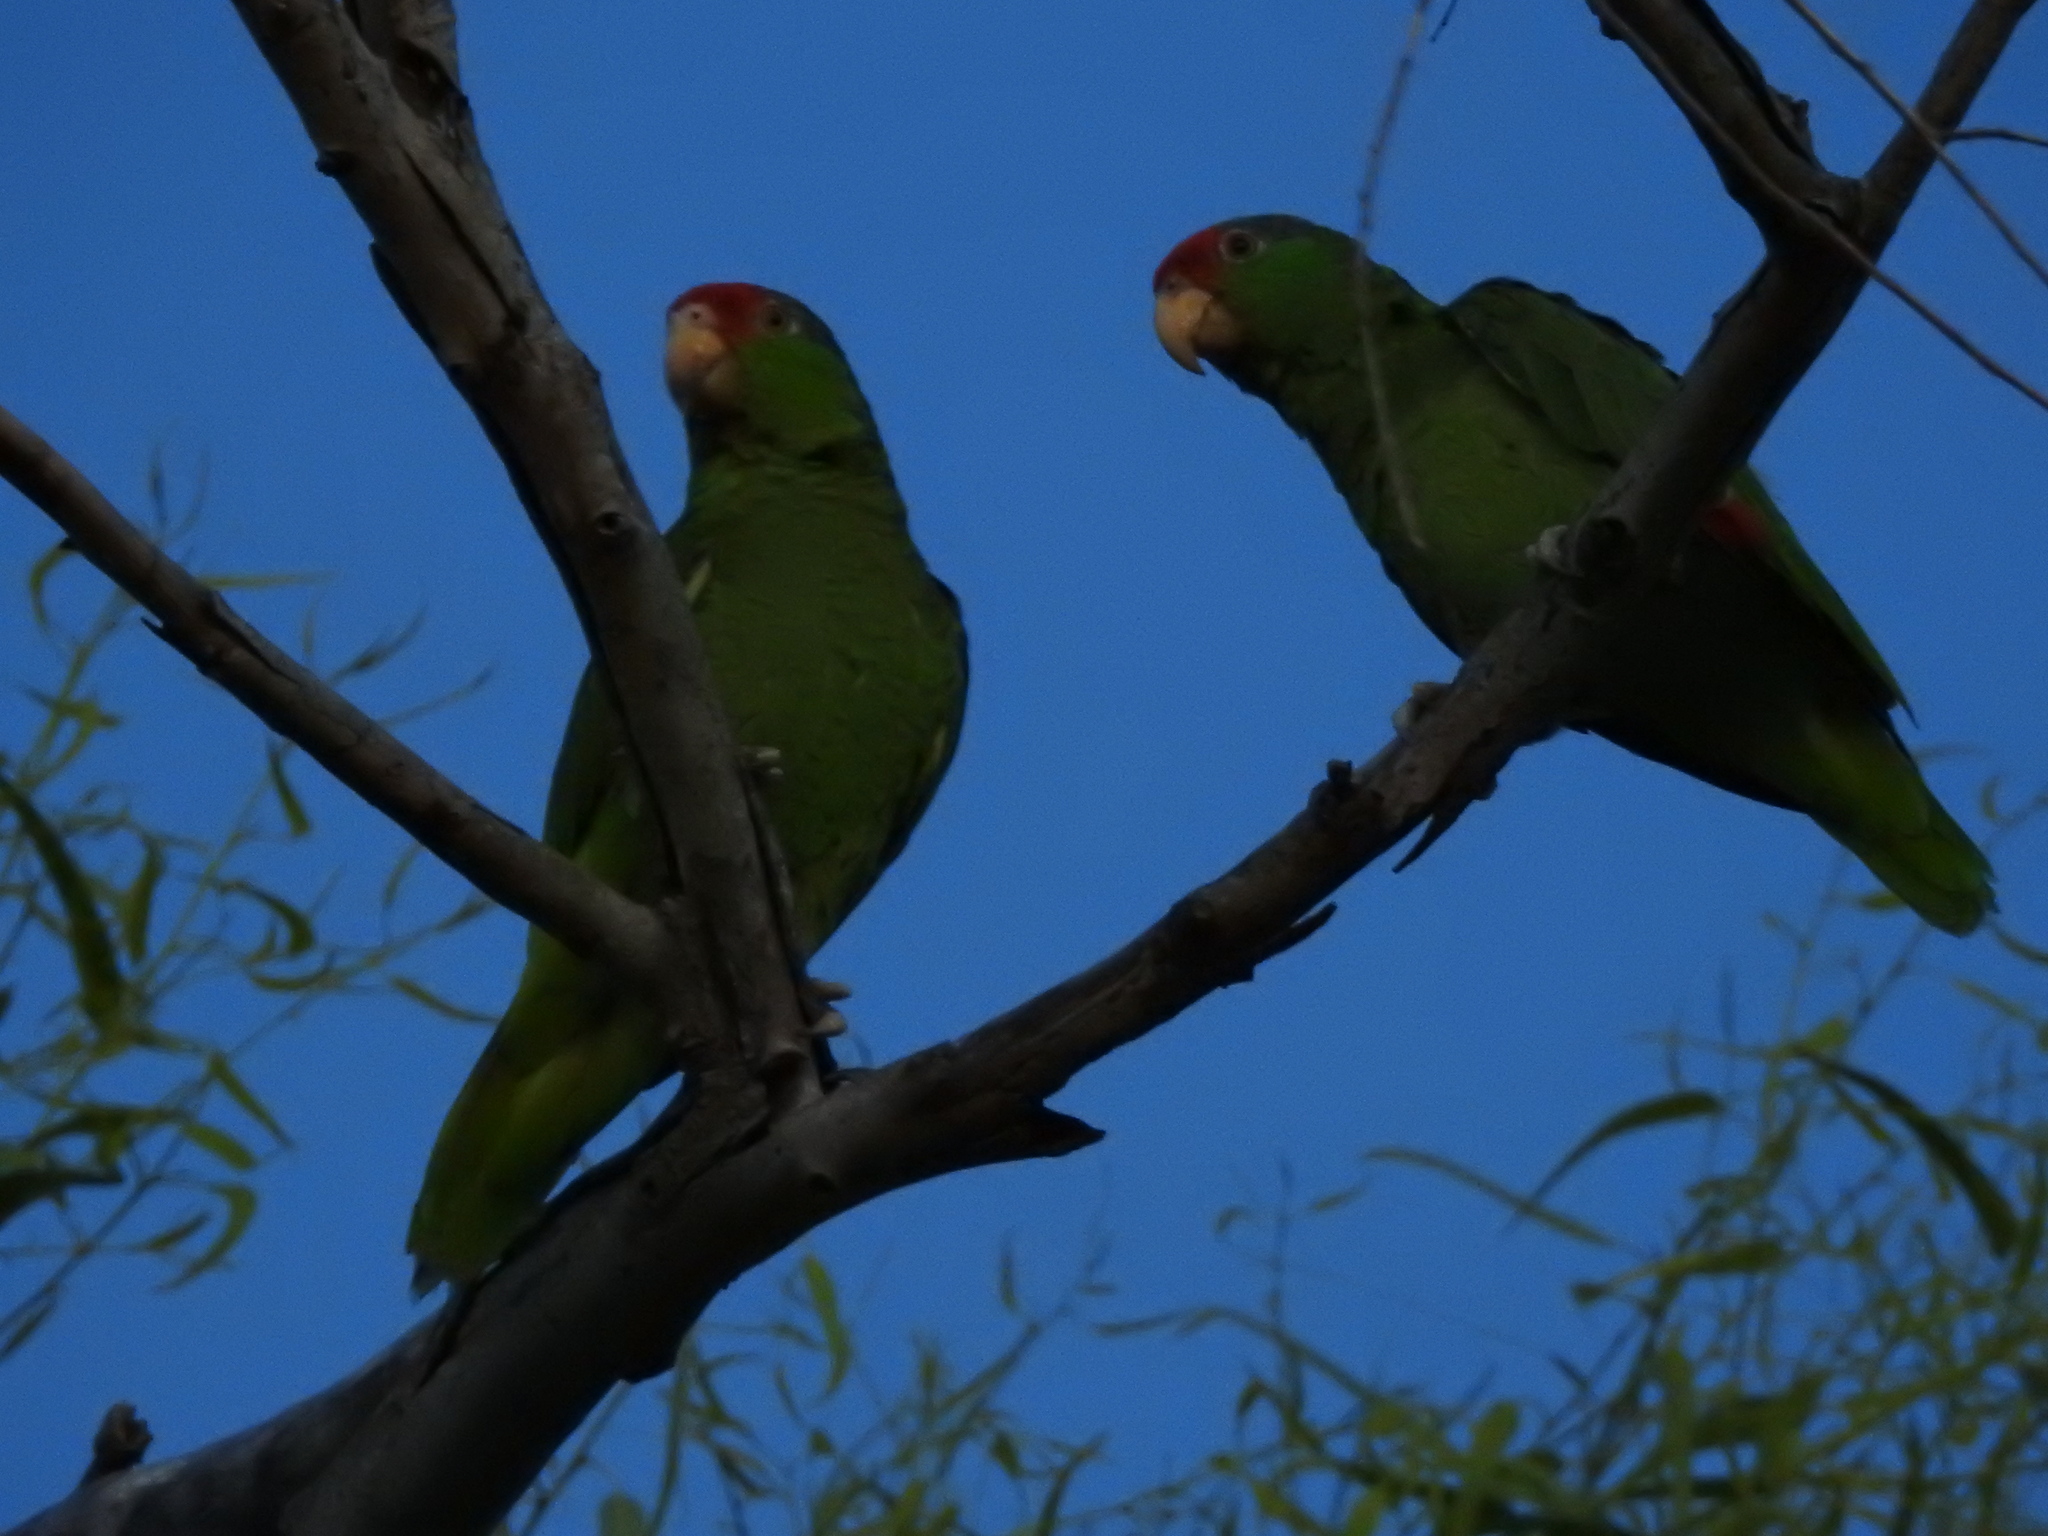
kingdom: Animalia
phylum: Chordata
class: Aves
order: Psittaciformes
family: Psittacidae
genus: Amazona
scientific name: Amazona viridigenalis
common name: Red-crowned amazon
